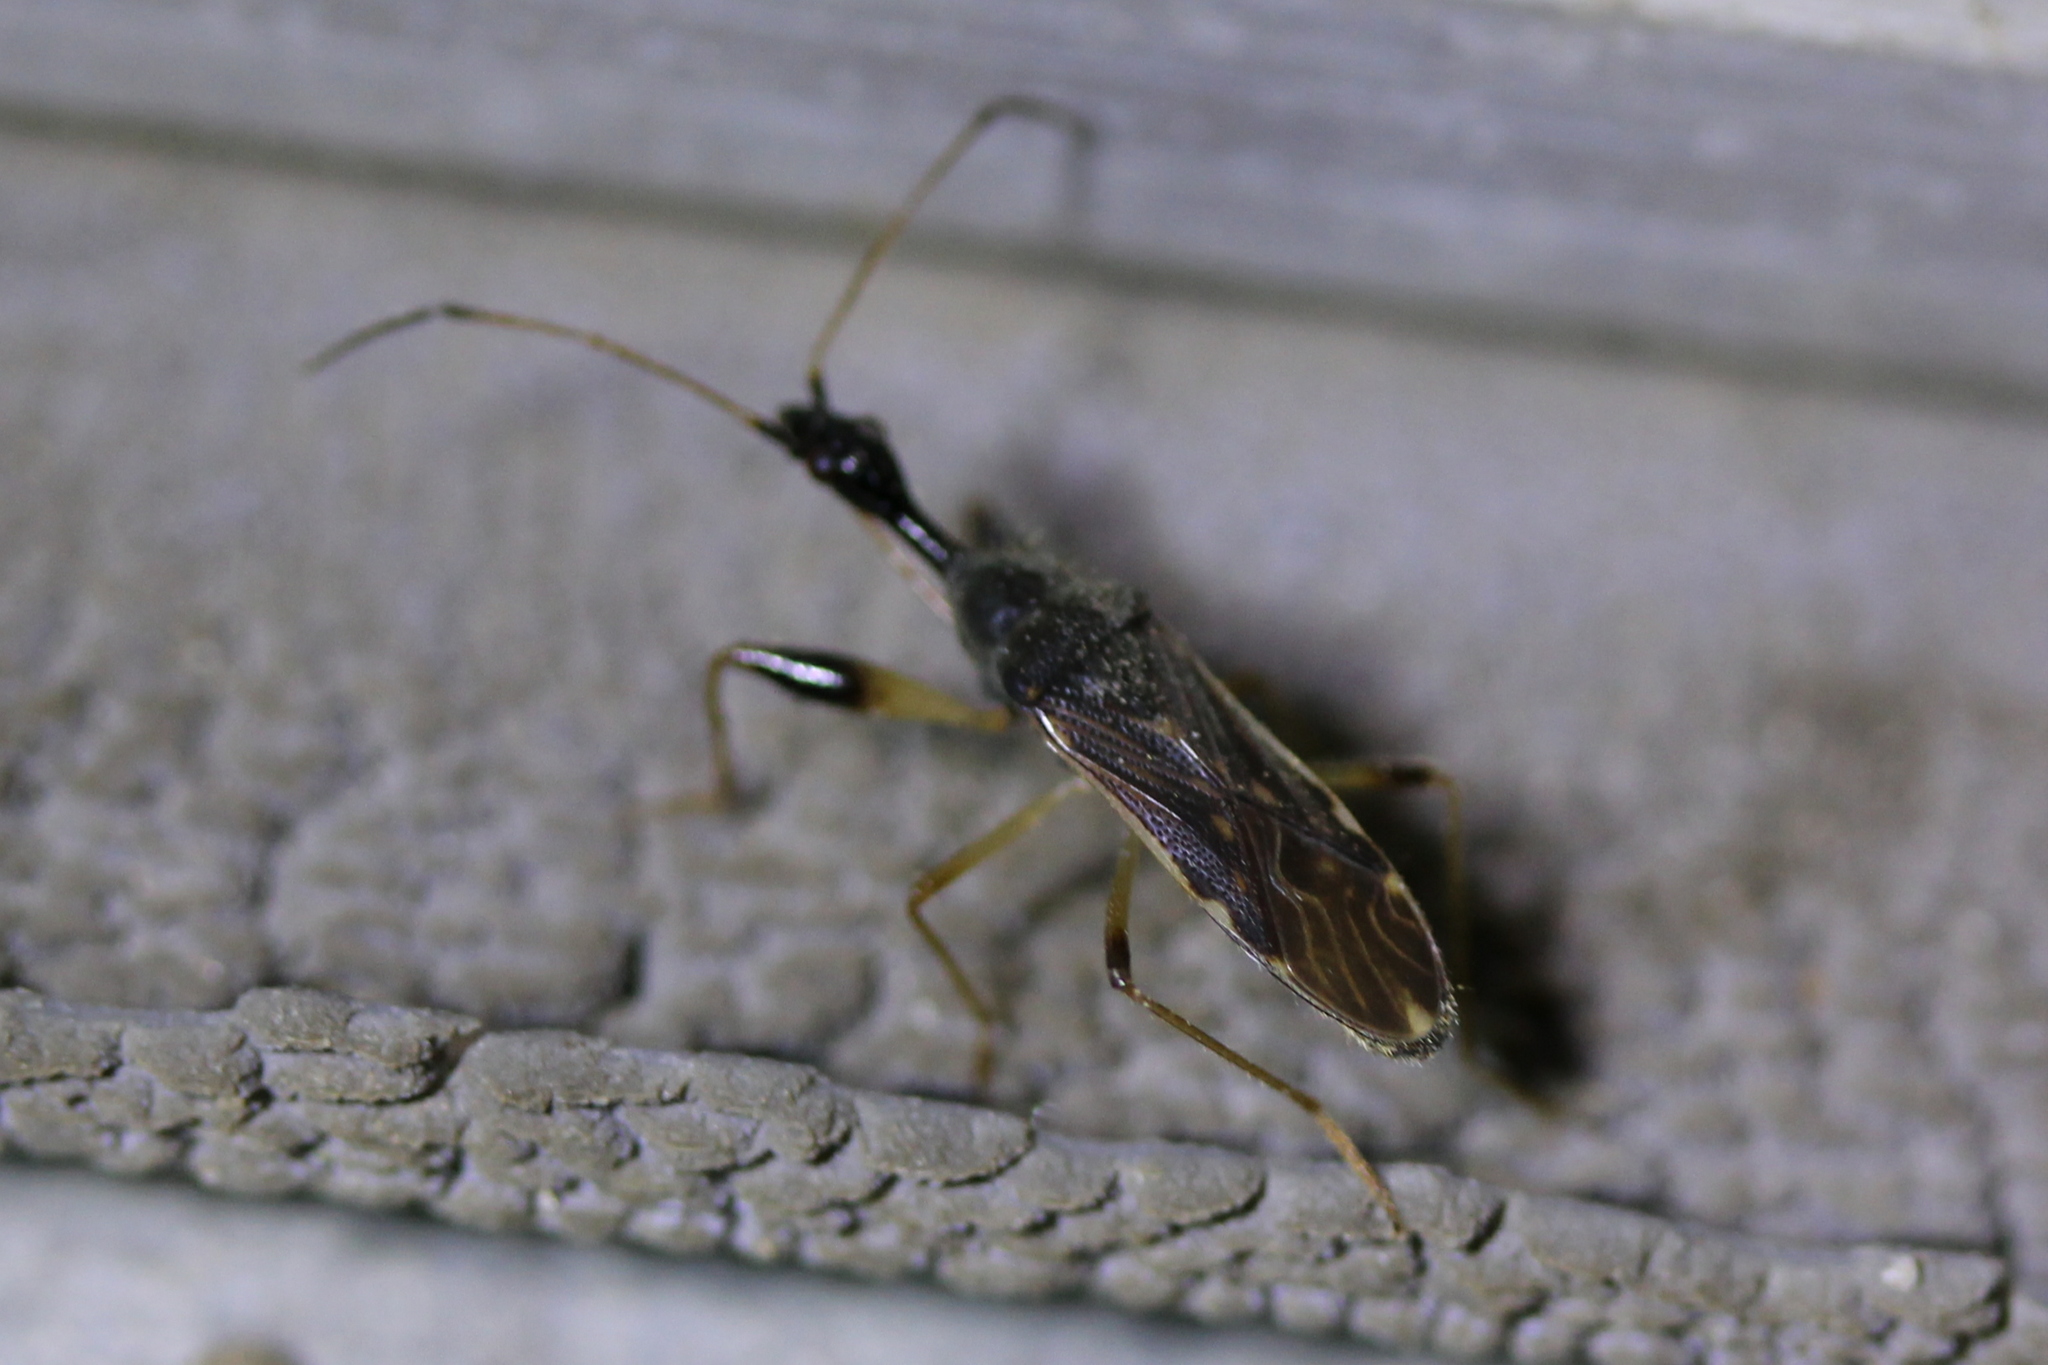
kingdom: Animalia
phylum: Arthropoda
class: Insecta
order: Hemiptera
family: Rhyparochromidae
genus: Myodocha
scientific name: Myodocha serripes
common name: Long-necked seed bug
